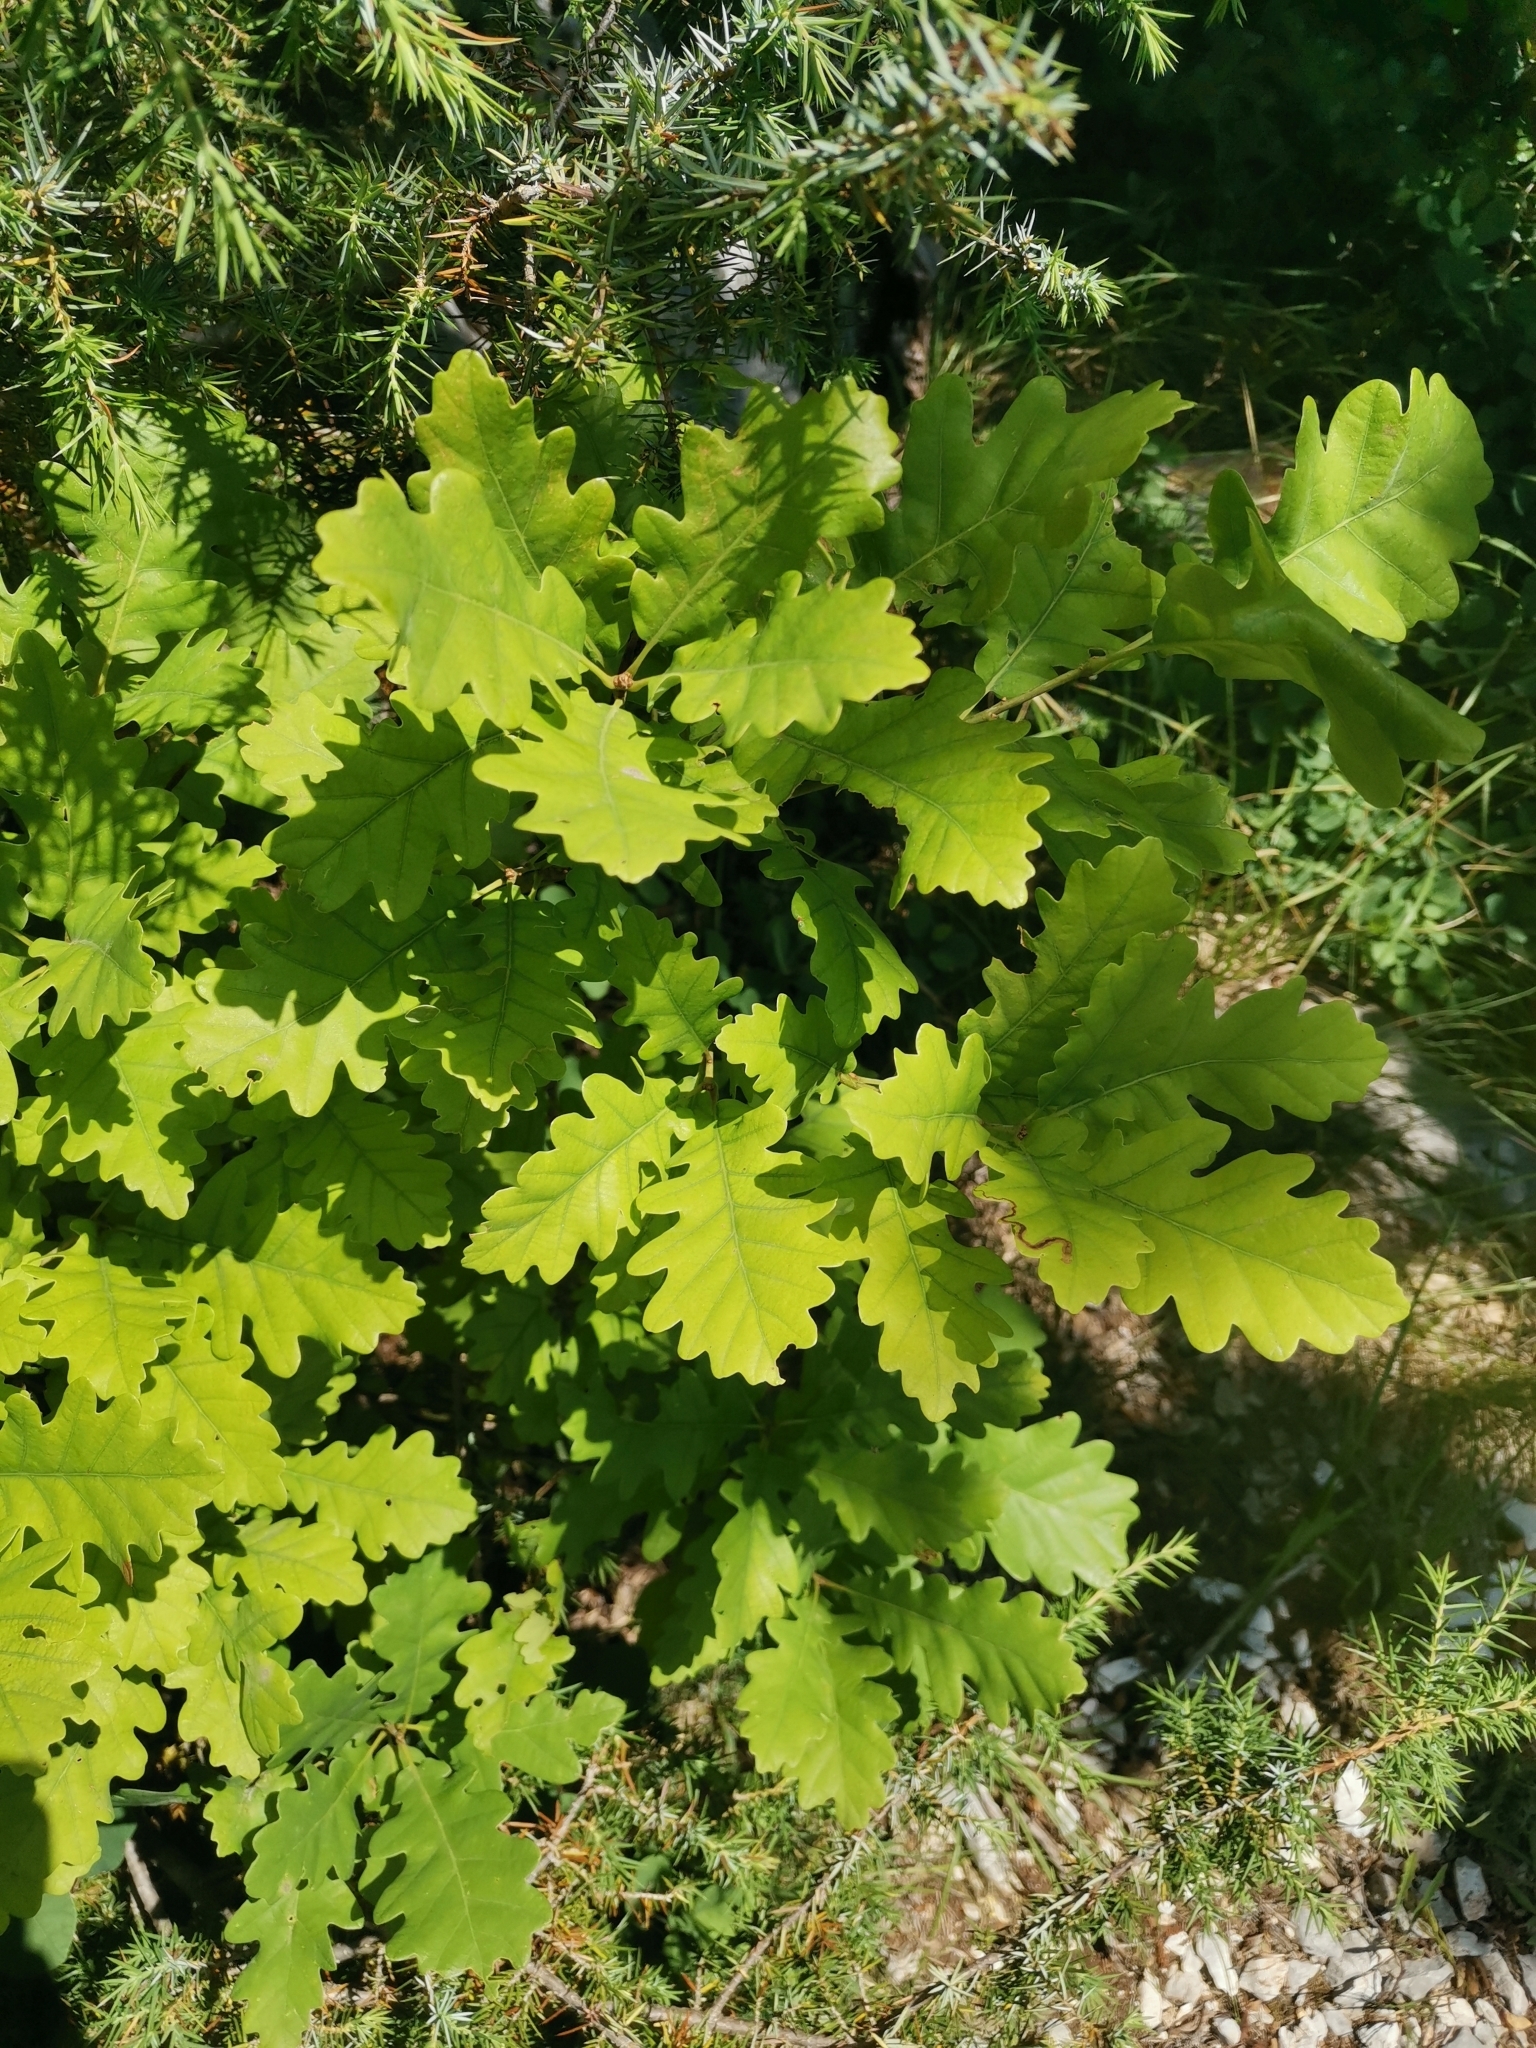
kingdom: Plantae
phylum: Tracheophyta
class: Magnoliopsida
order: Fagales
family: Fagaceae
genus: Quercus
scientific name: Quercus petraea
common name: Sessile oak
